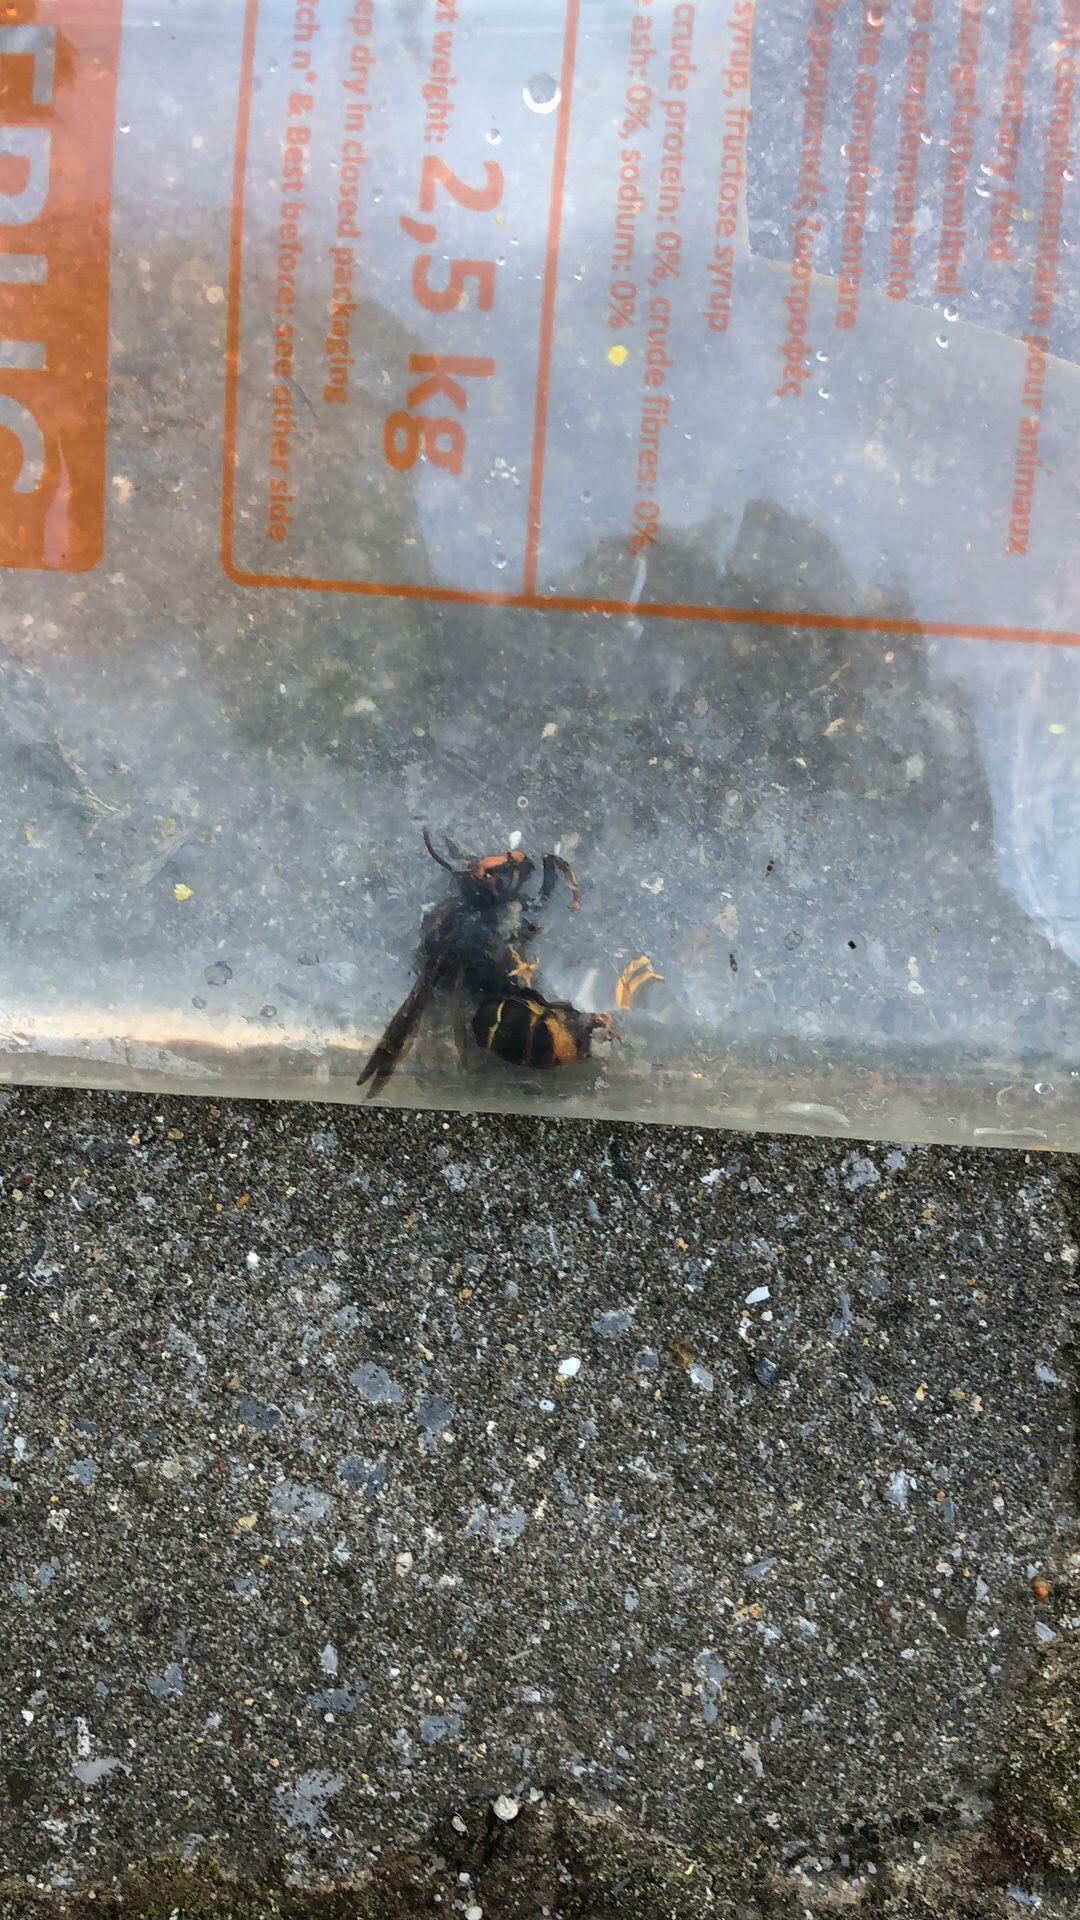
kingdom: Animalia
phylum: Arthropoda
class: Insecta
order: Hymenoptera
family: Vespidae
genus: Vespa
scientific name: Vespa velutina
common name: Asian hornet
